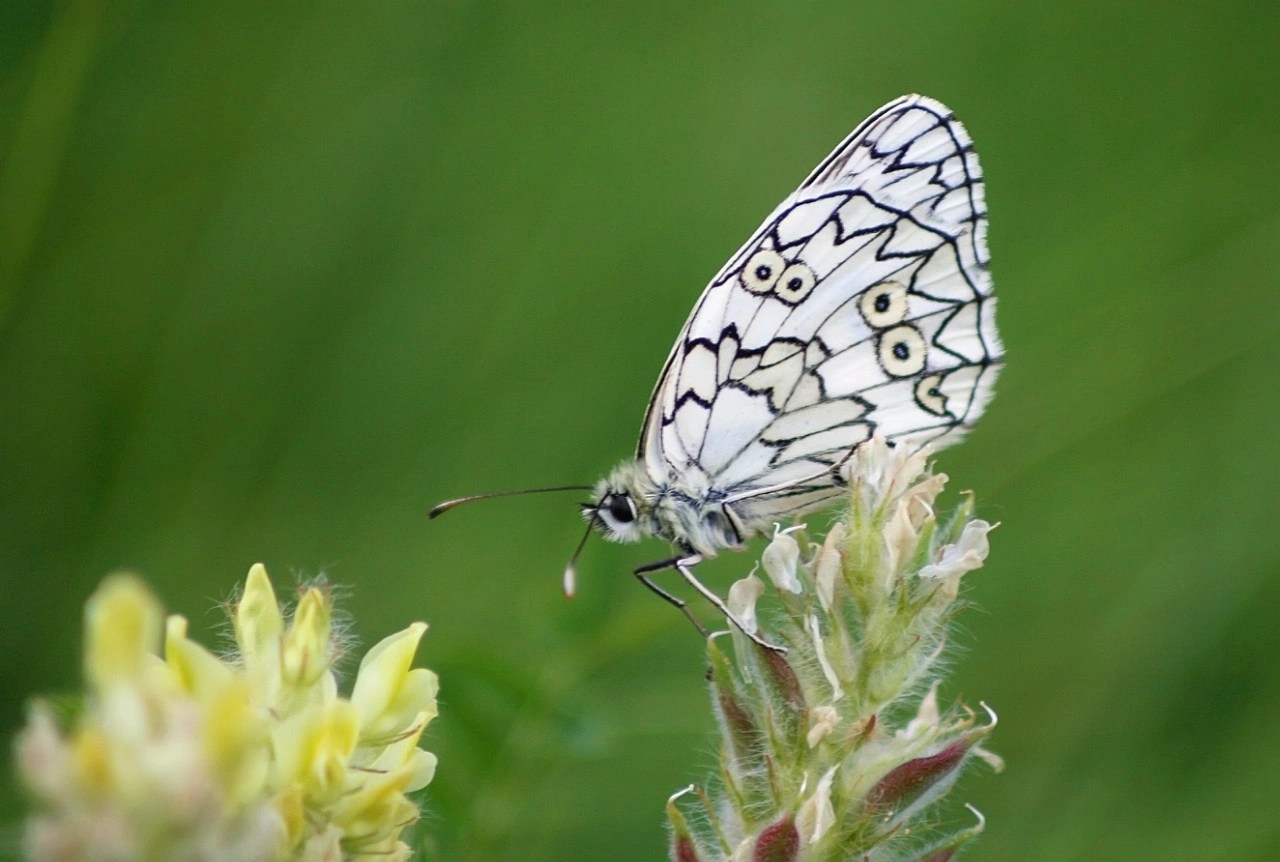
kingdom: Animalia
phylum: Arthropoda
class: Insecta
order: Lepidoptera
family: Nymphalidae
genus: Melanargia
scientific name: Melanargia japygia
